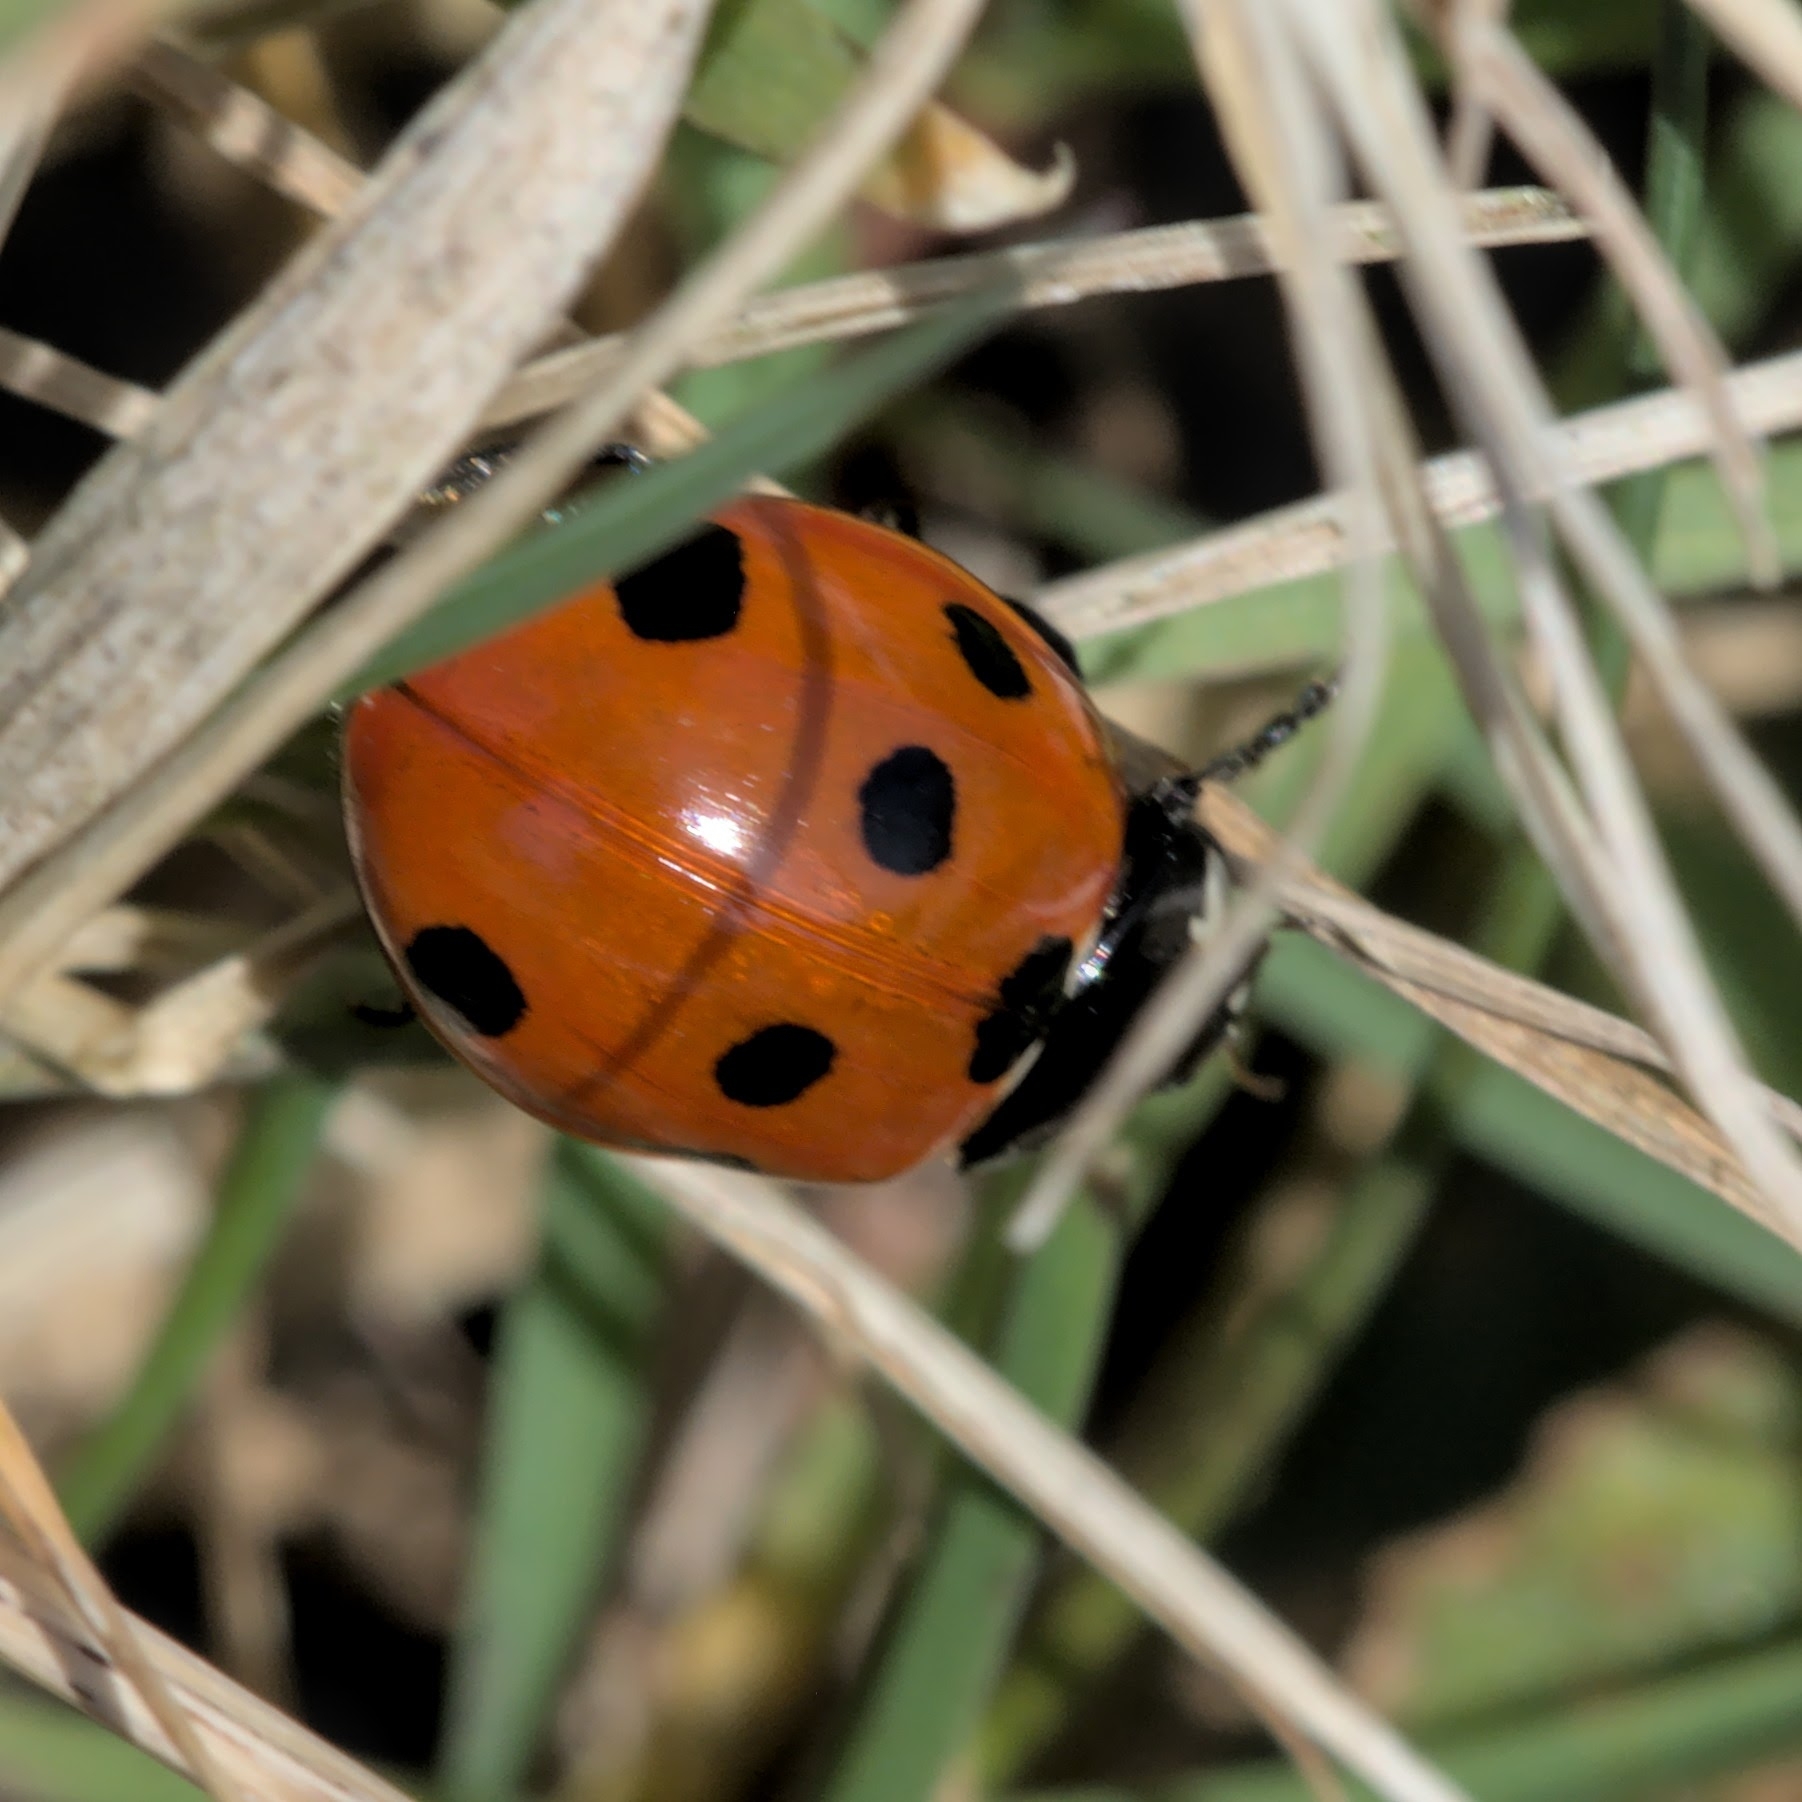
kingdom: Animalia
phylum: Arthropoda
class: Insecta
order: Coleoptera
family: Coccinellidae
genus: Coccinella
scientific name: Coccinella septempunctata
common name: Sevenspotted lady beetle
